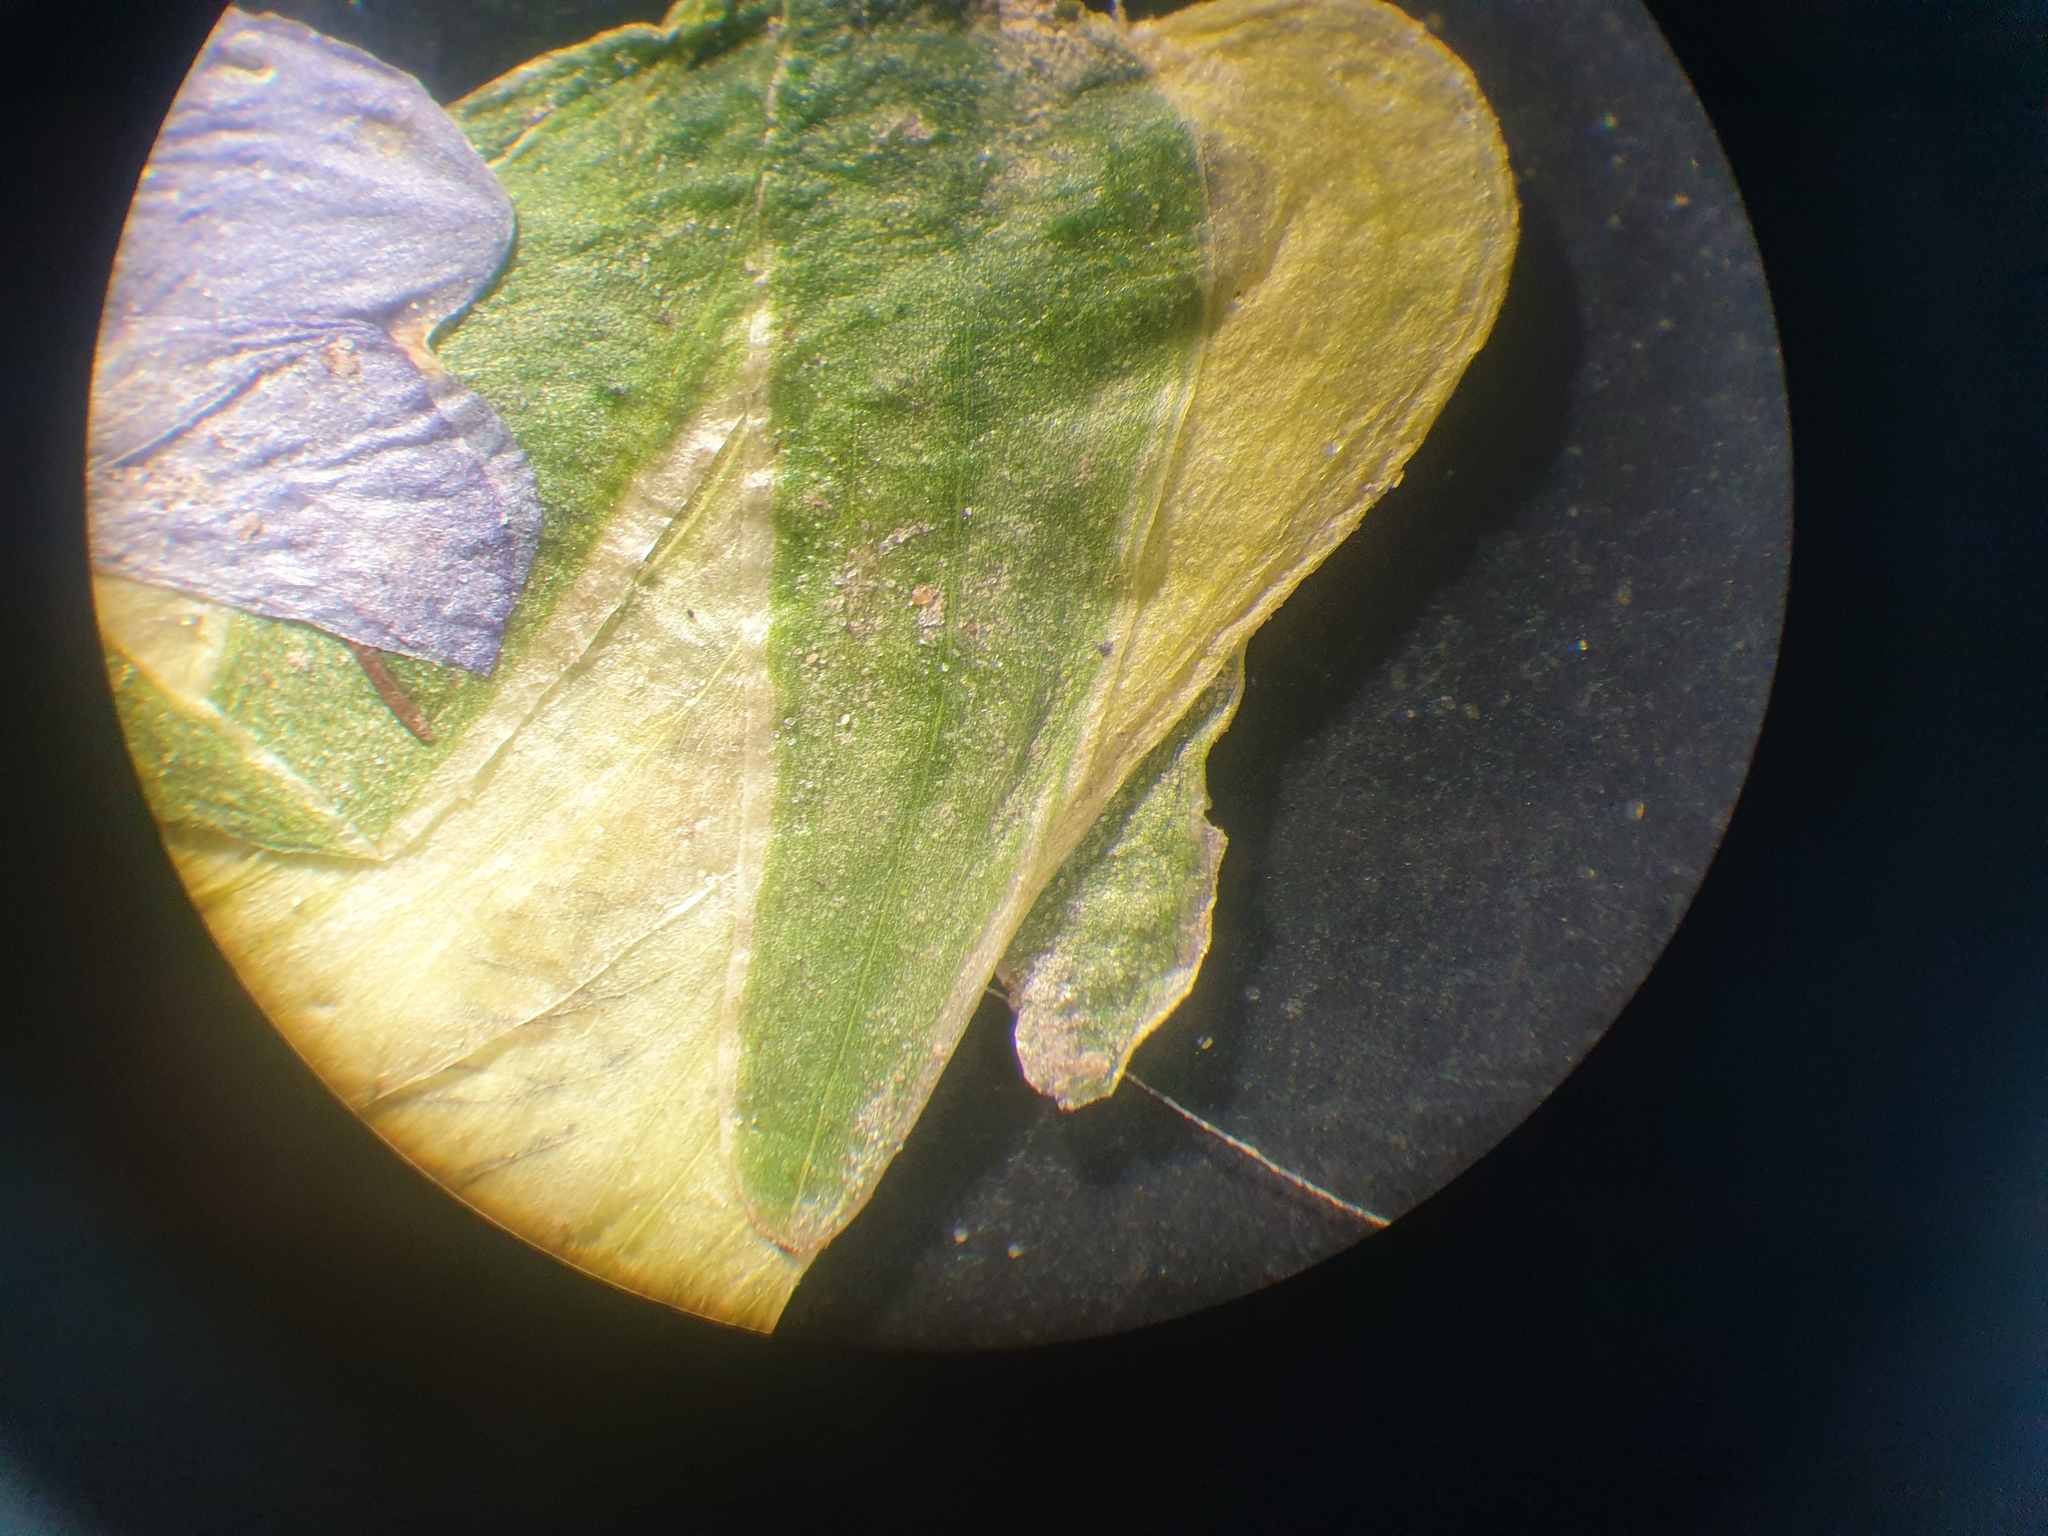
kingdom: Plantae
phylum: Tracheophyta
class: Magnoliopsida
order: Malpighiales
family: Violaceae
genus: Viola
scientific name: Viola missouriensis
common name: Missouri violet
